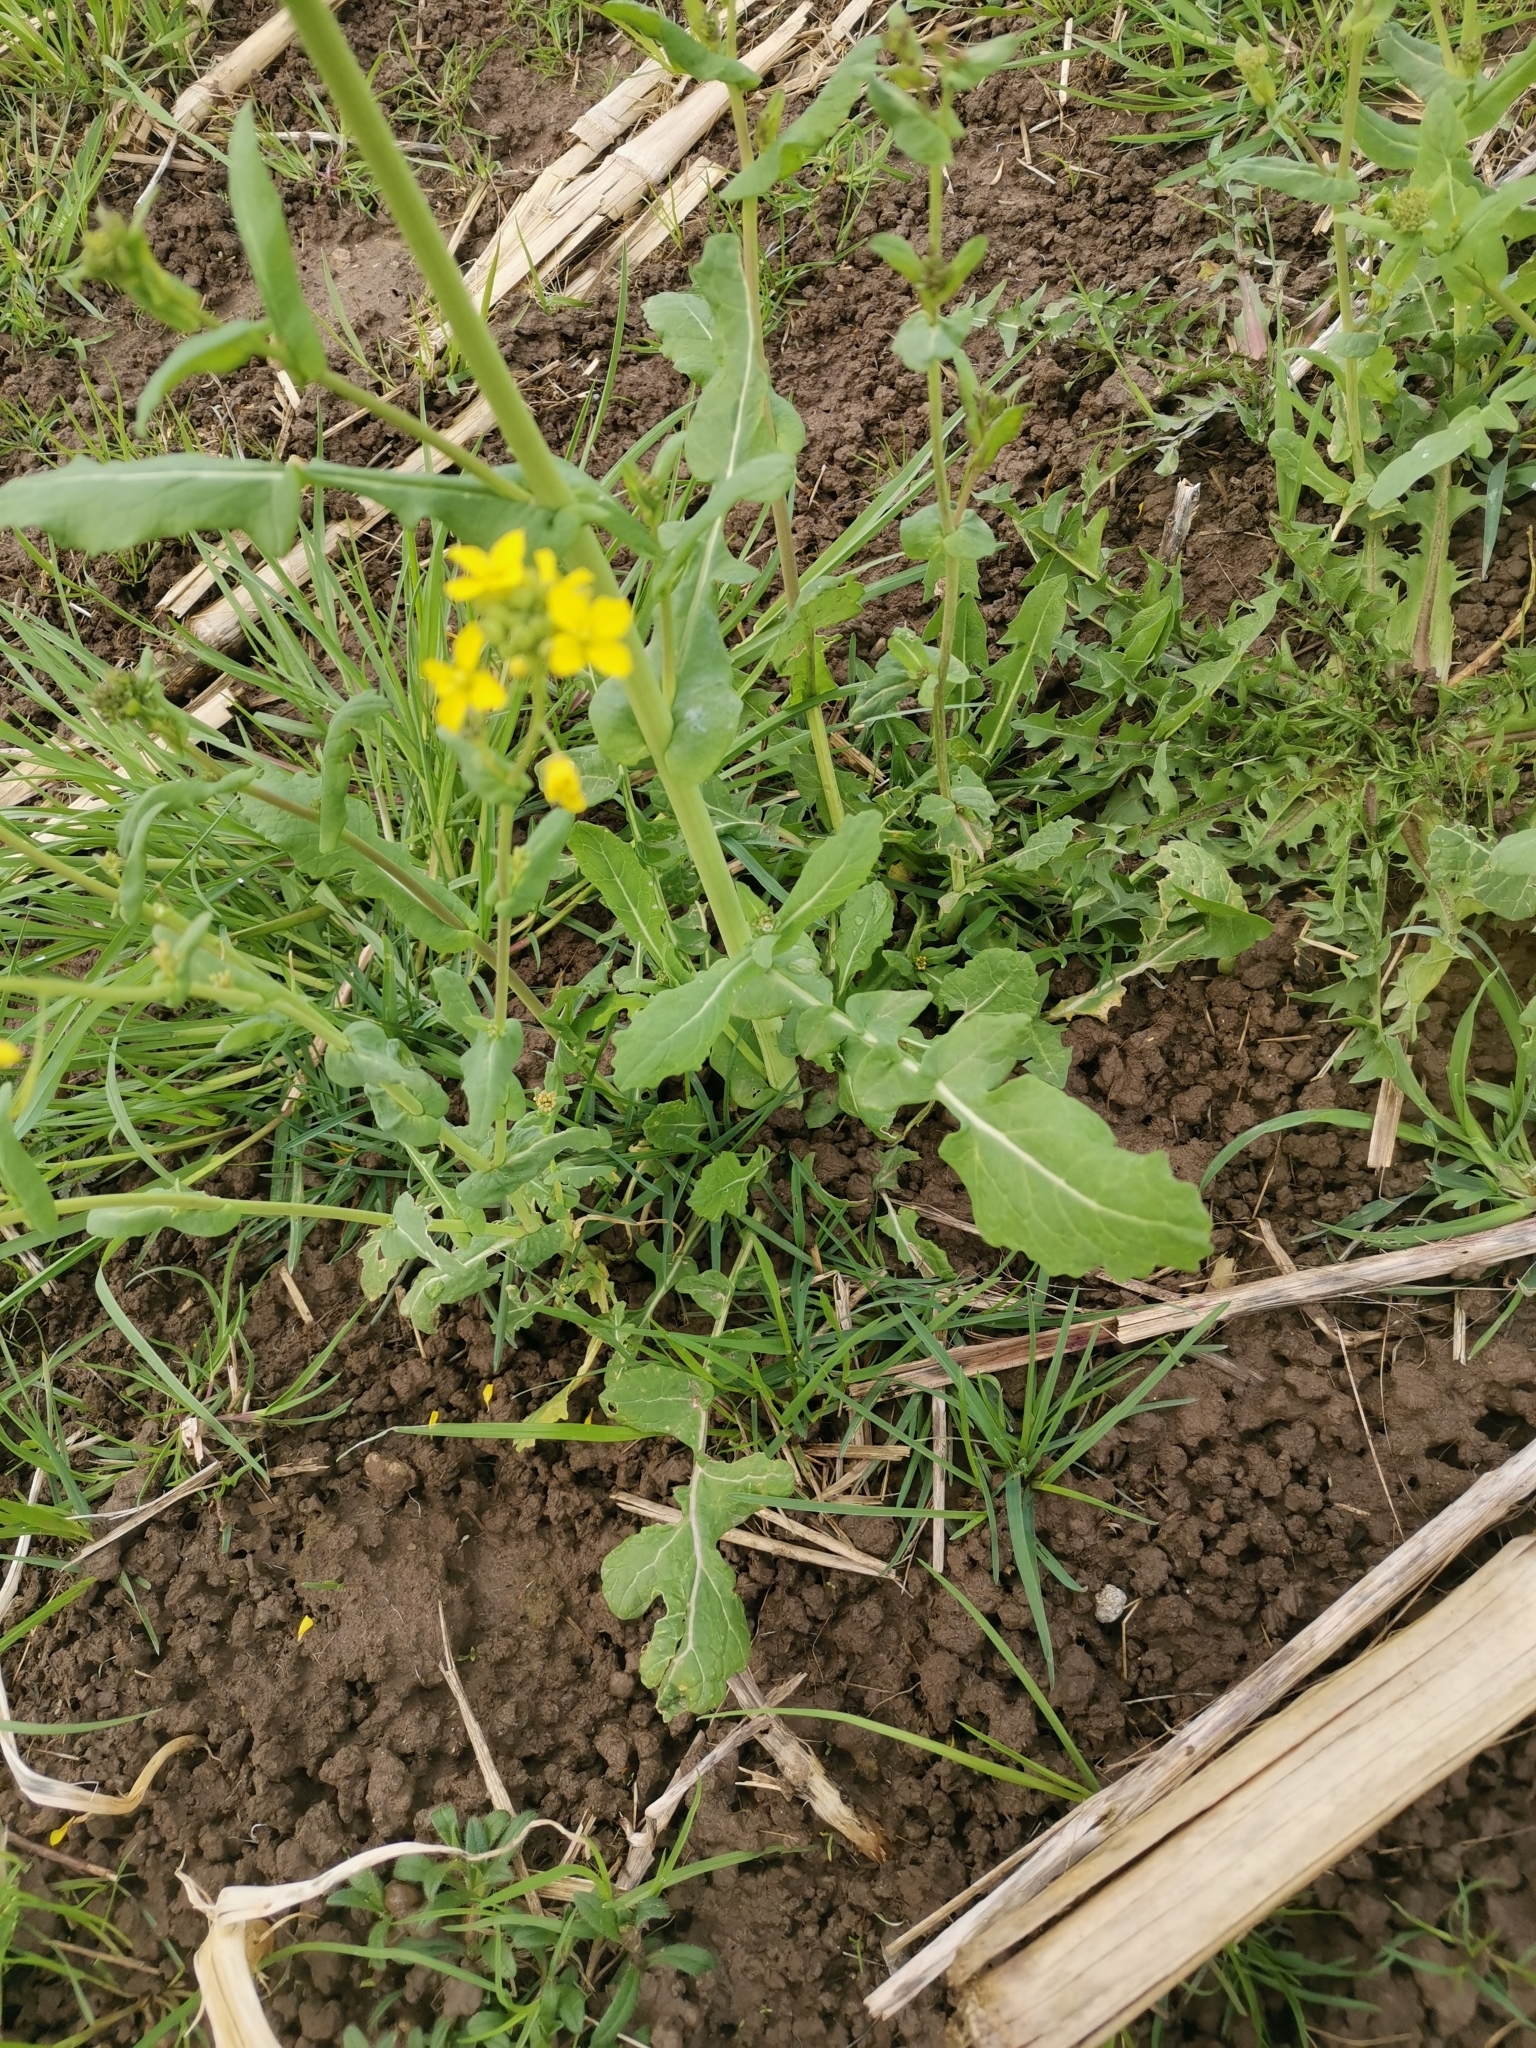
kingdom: Plantae
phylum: Tracheophyta
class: Magnoliopsida
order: Brassicales
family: Brassicaceae
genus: Brassica
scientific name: Brassica napus
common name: Rape
